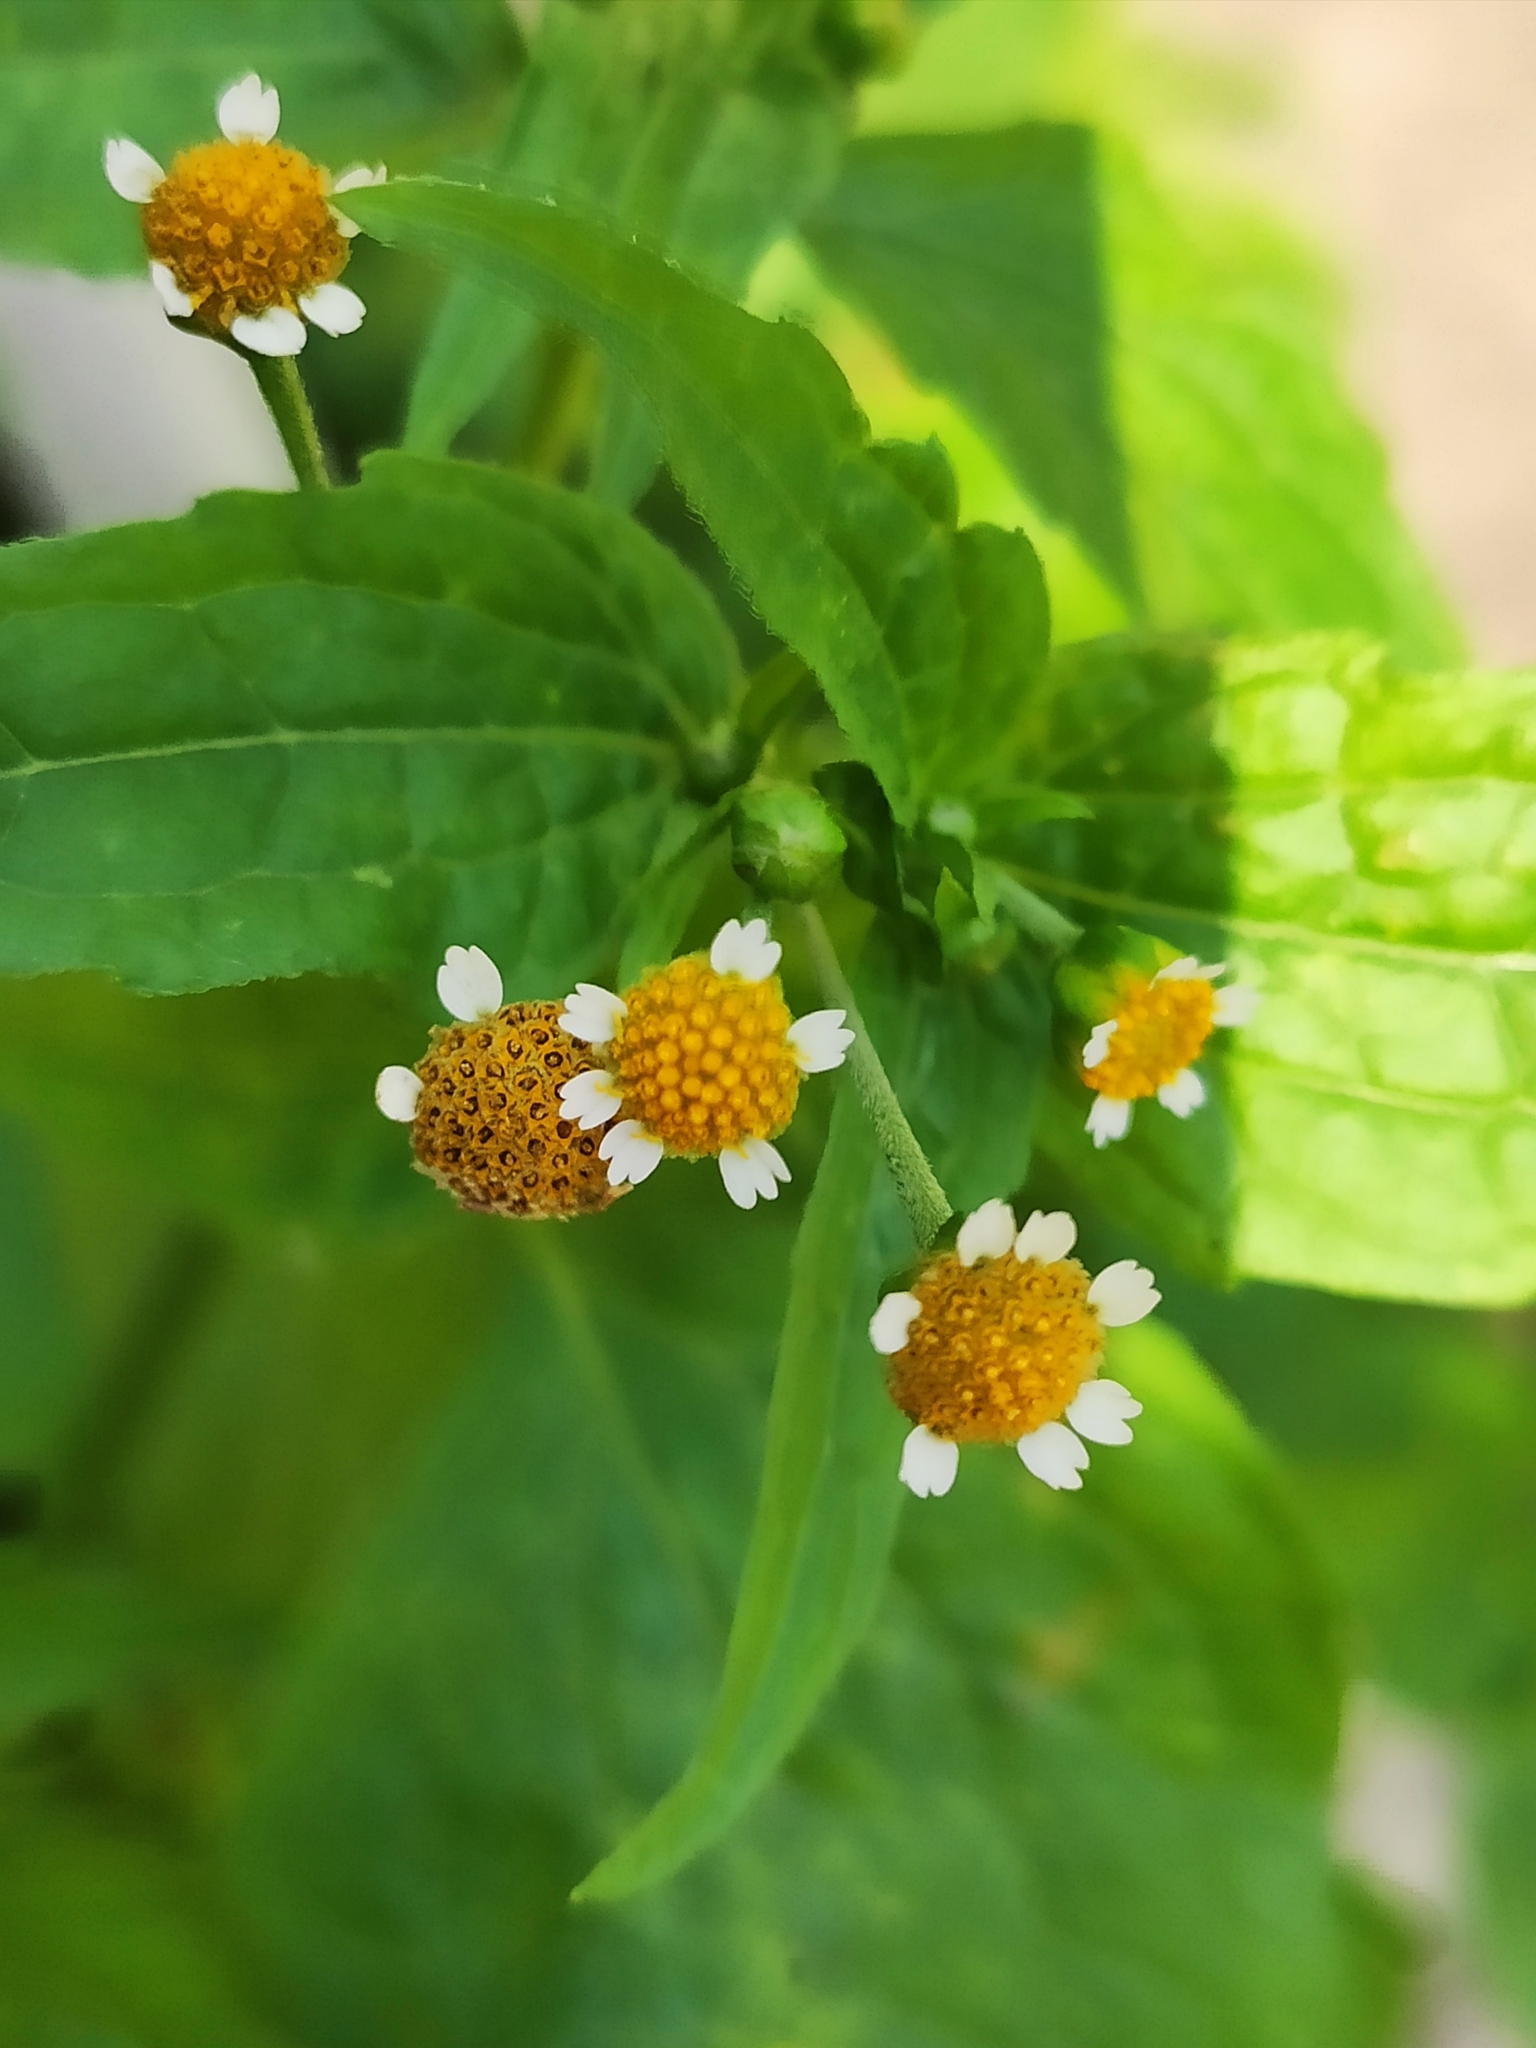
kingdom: Plantae
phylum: Tracheophyta
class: Magnoliopsida
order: Asterales
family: Asteraceae
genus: Galinsoga
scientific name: Galinsoga parviflora
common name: Gallant soldier
